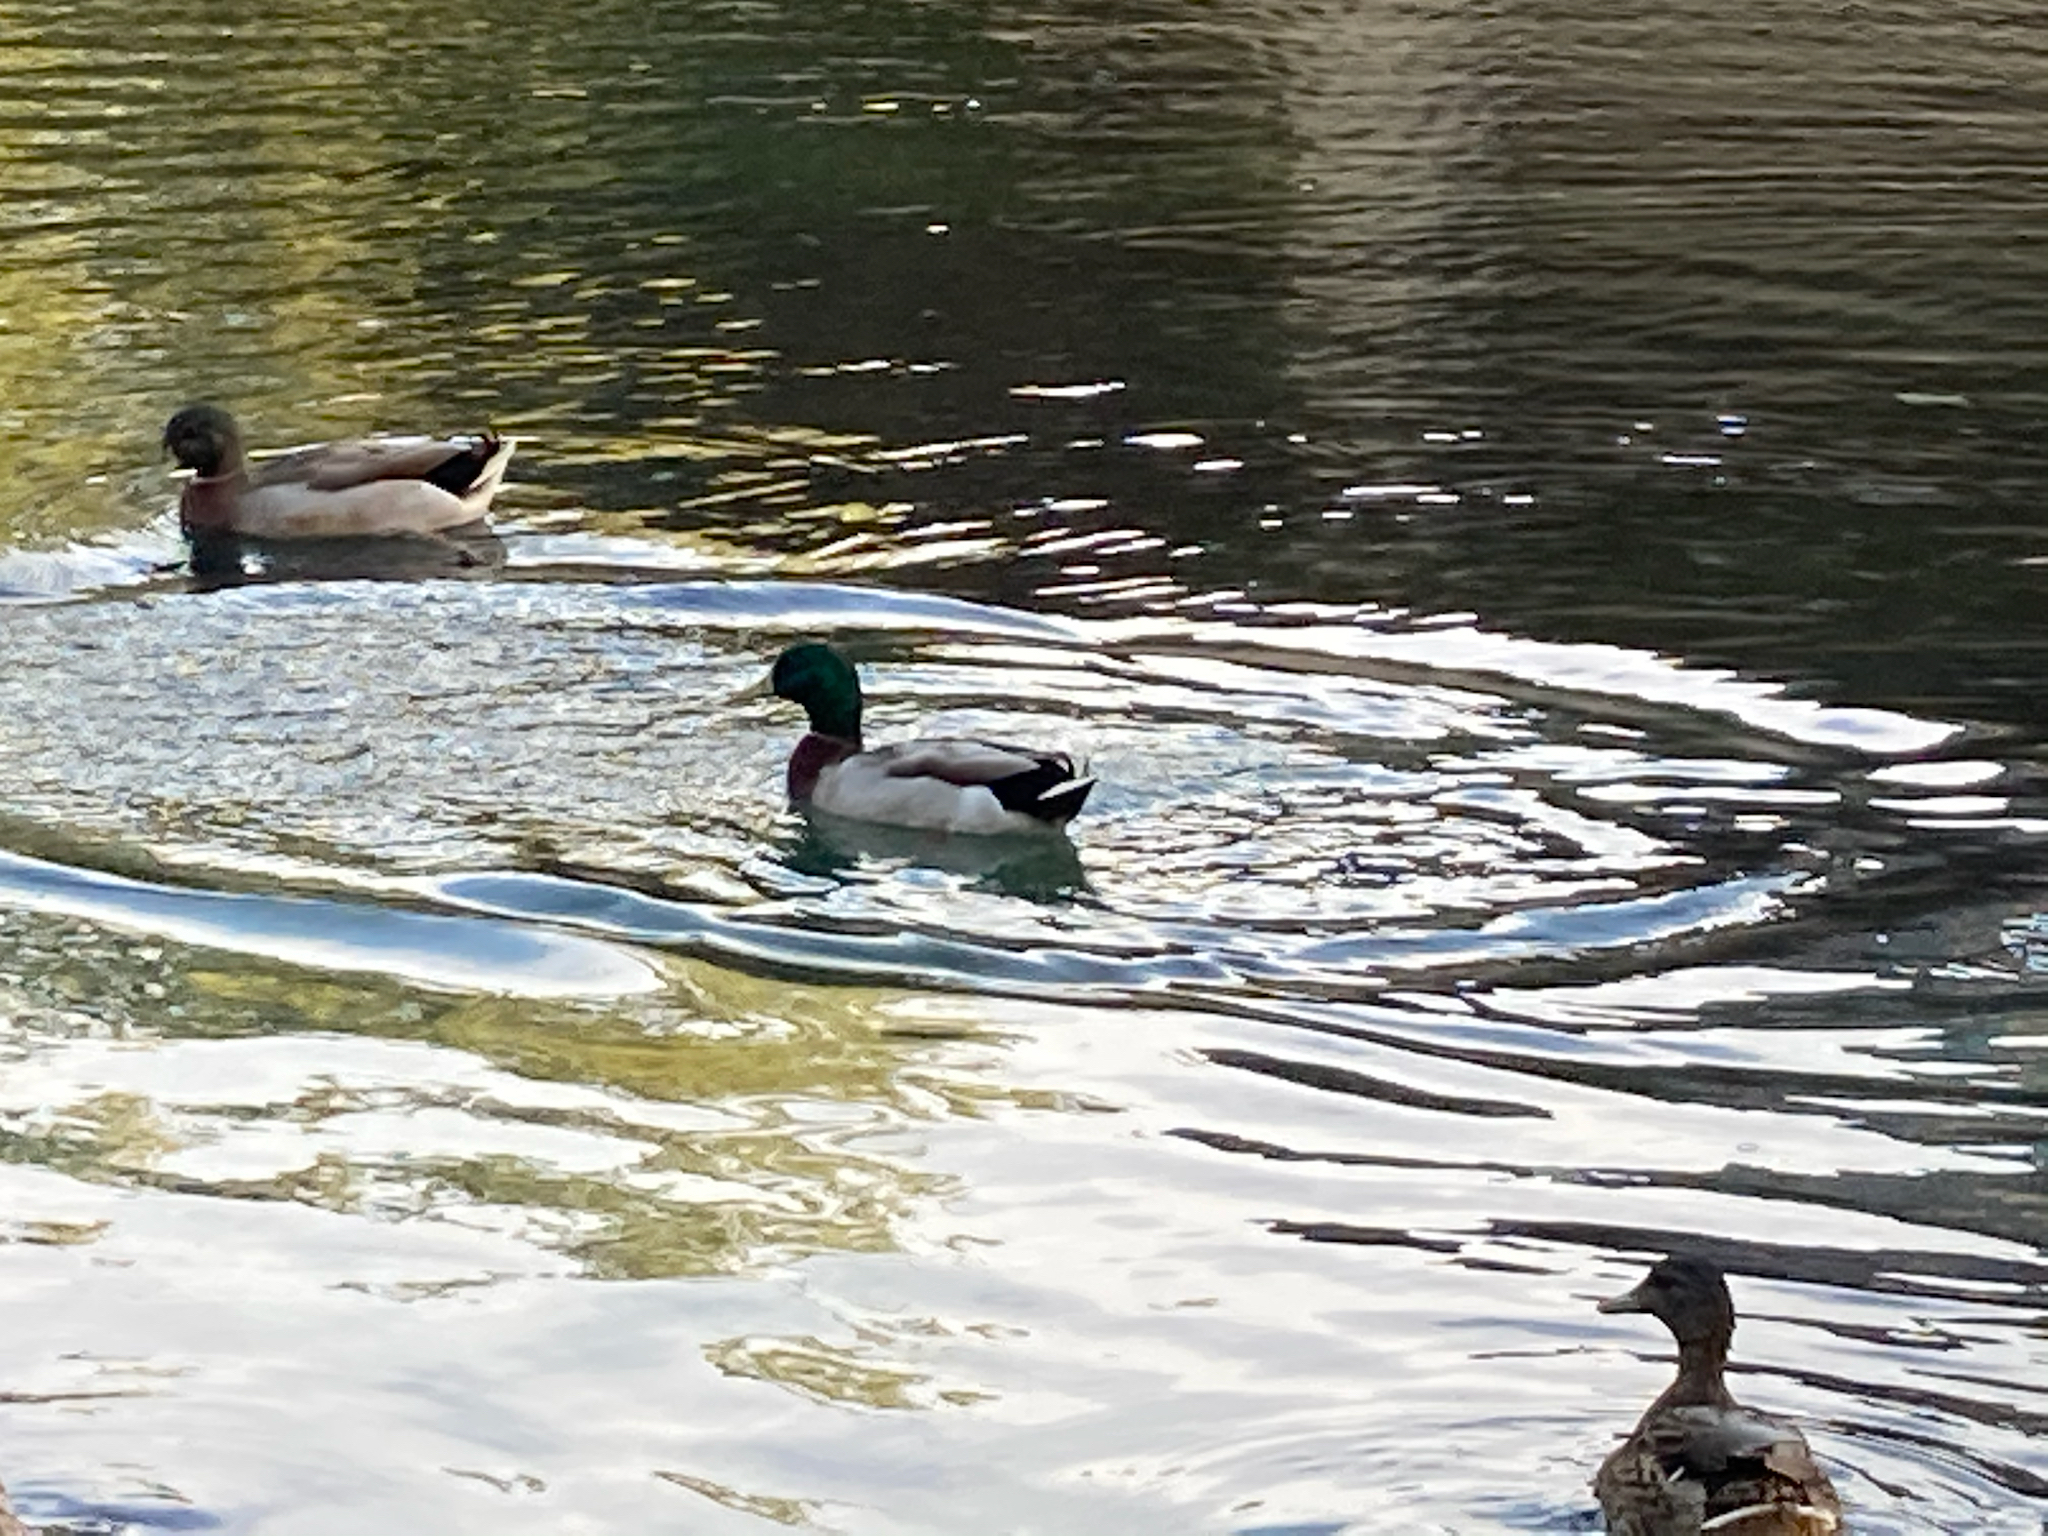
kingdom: Animalia
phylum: Chordata
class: Aves
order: Anseriformes
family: Anatidae
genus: Anas
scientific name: Anas platyrhynchos
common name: Mallard
